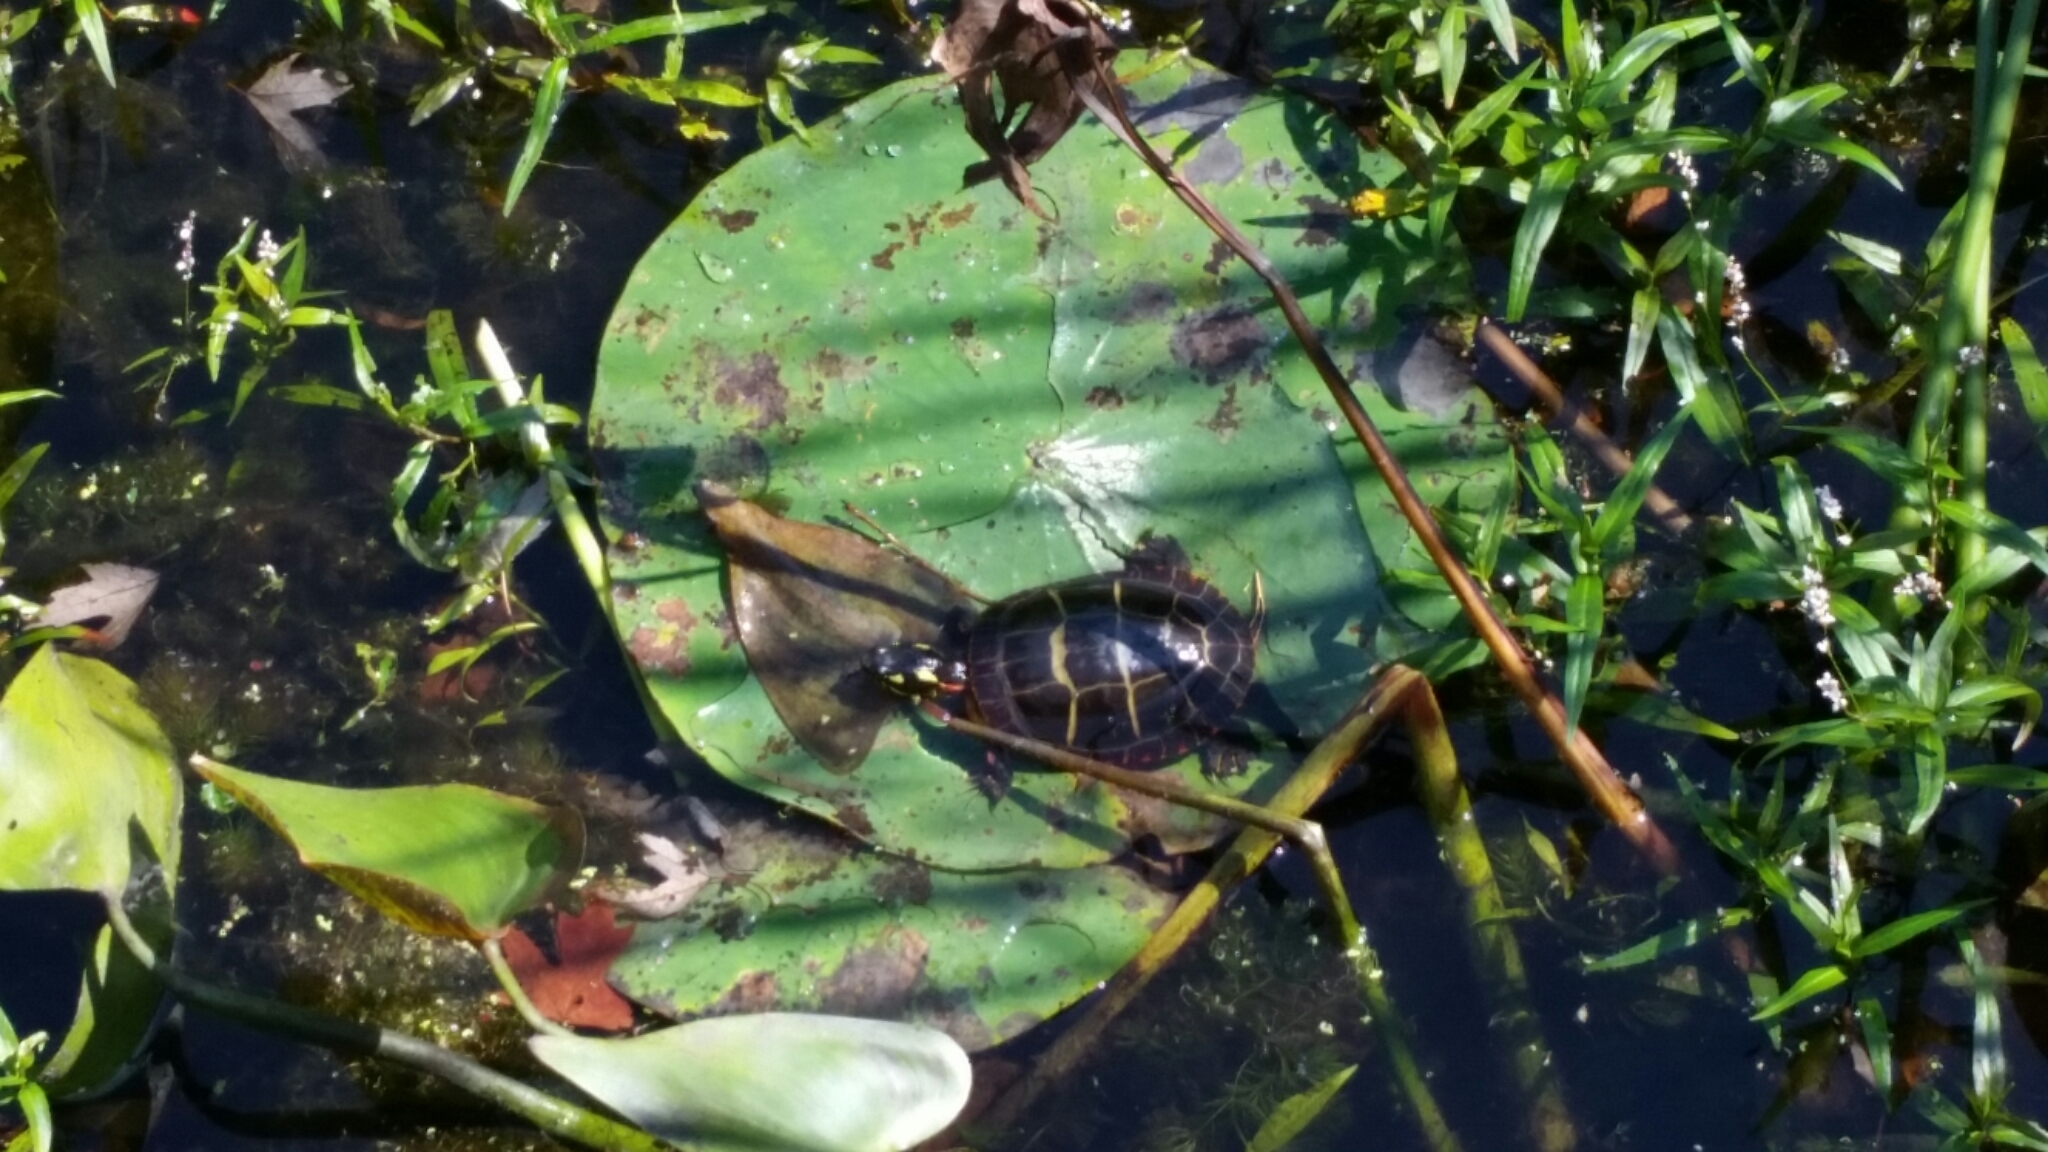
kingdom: Animalia
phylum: Chordata
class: Testudines
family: Emydidae
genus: Chrysemys
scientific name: Chrysemys picta
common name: Painted turtle
